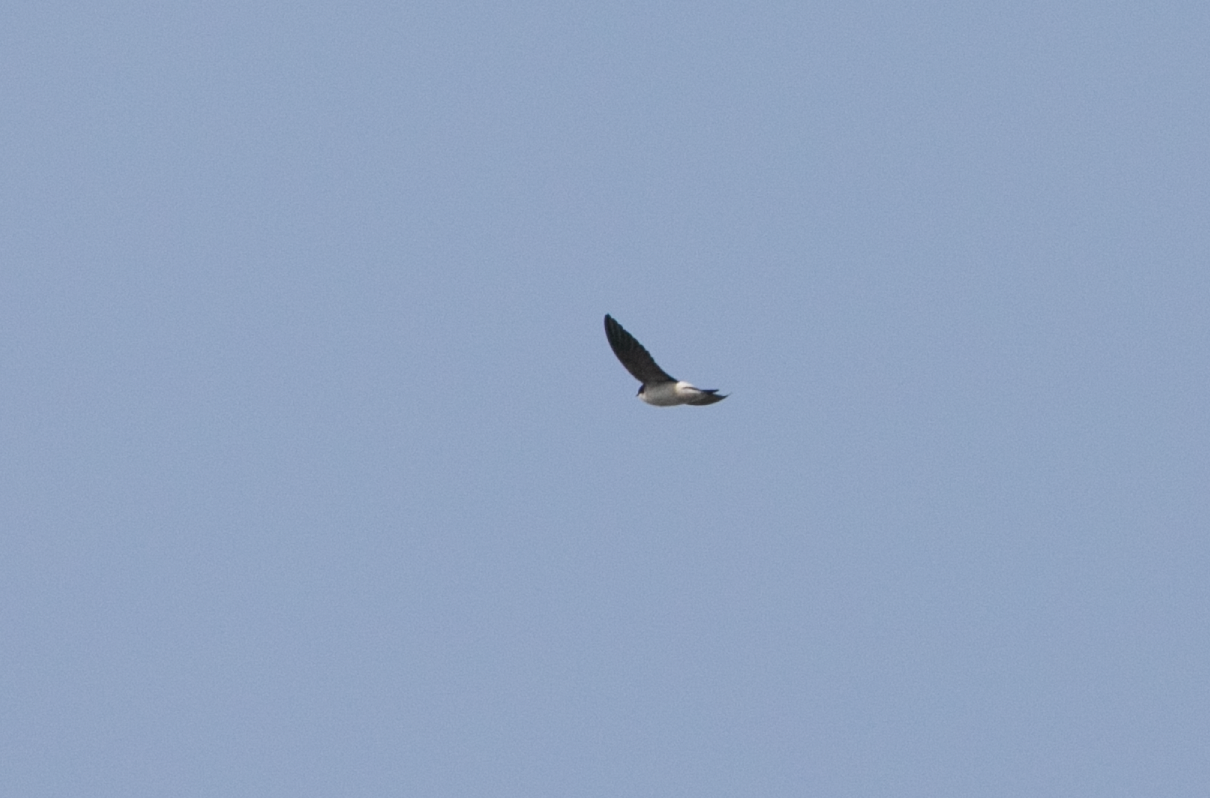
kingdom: Animalia
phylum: Chordata
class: Aves
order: Passeriformes
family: Hirundinidae
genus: Delichon
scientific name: Delichon urbicum
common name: Common house martin
